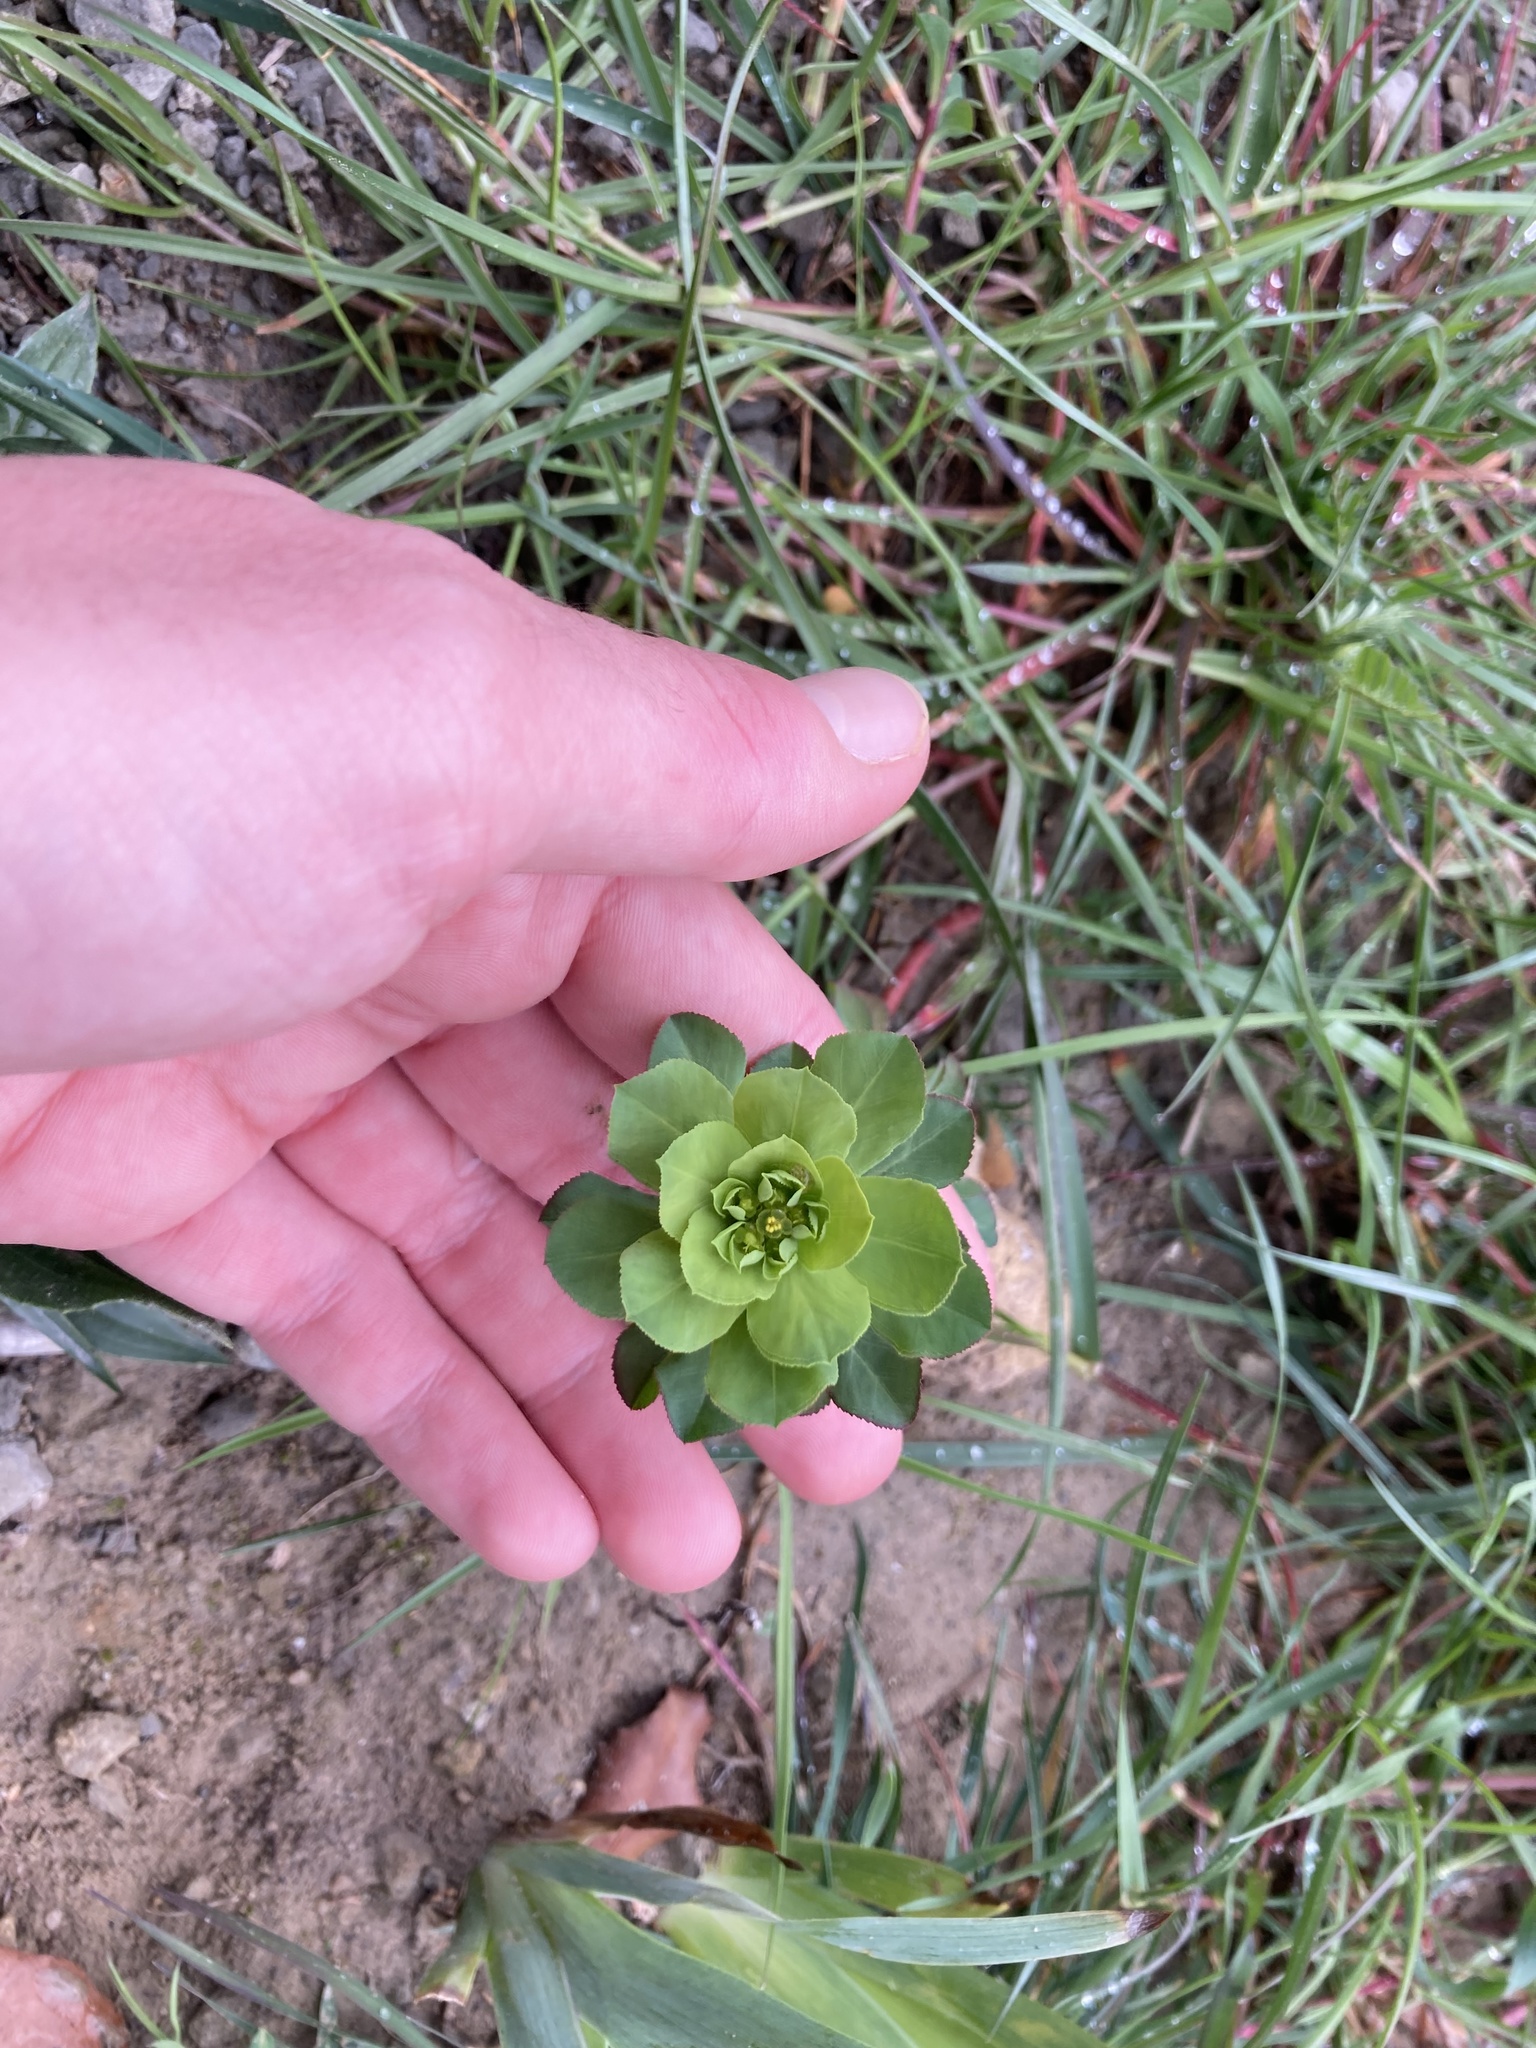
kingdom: Plantae
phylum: Tracheophyta
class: Magnoliopsida
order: Malpighiales
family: Euphorbiaceae
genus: Euphorbia
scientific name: Euphorbia helioscopia
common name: Sun spurge
